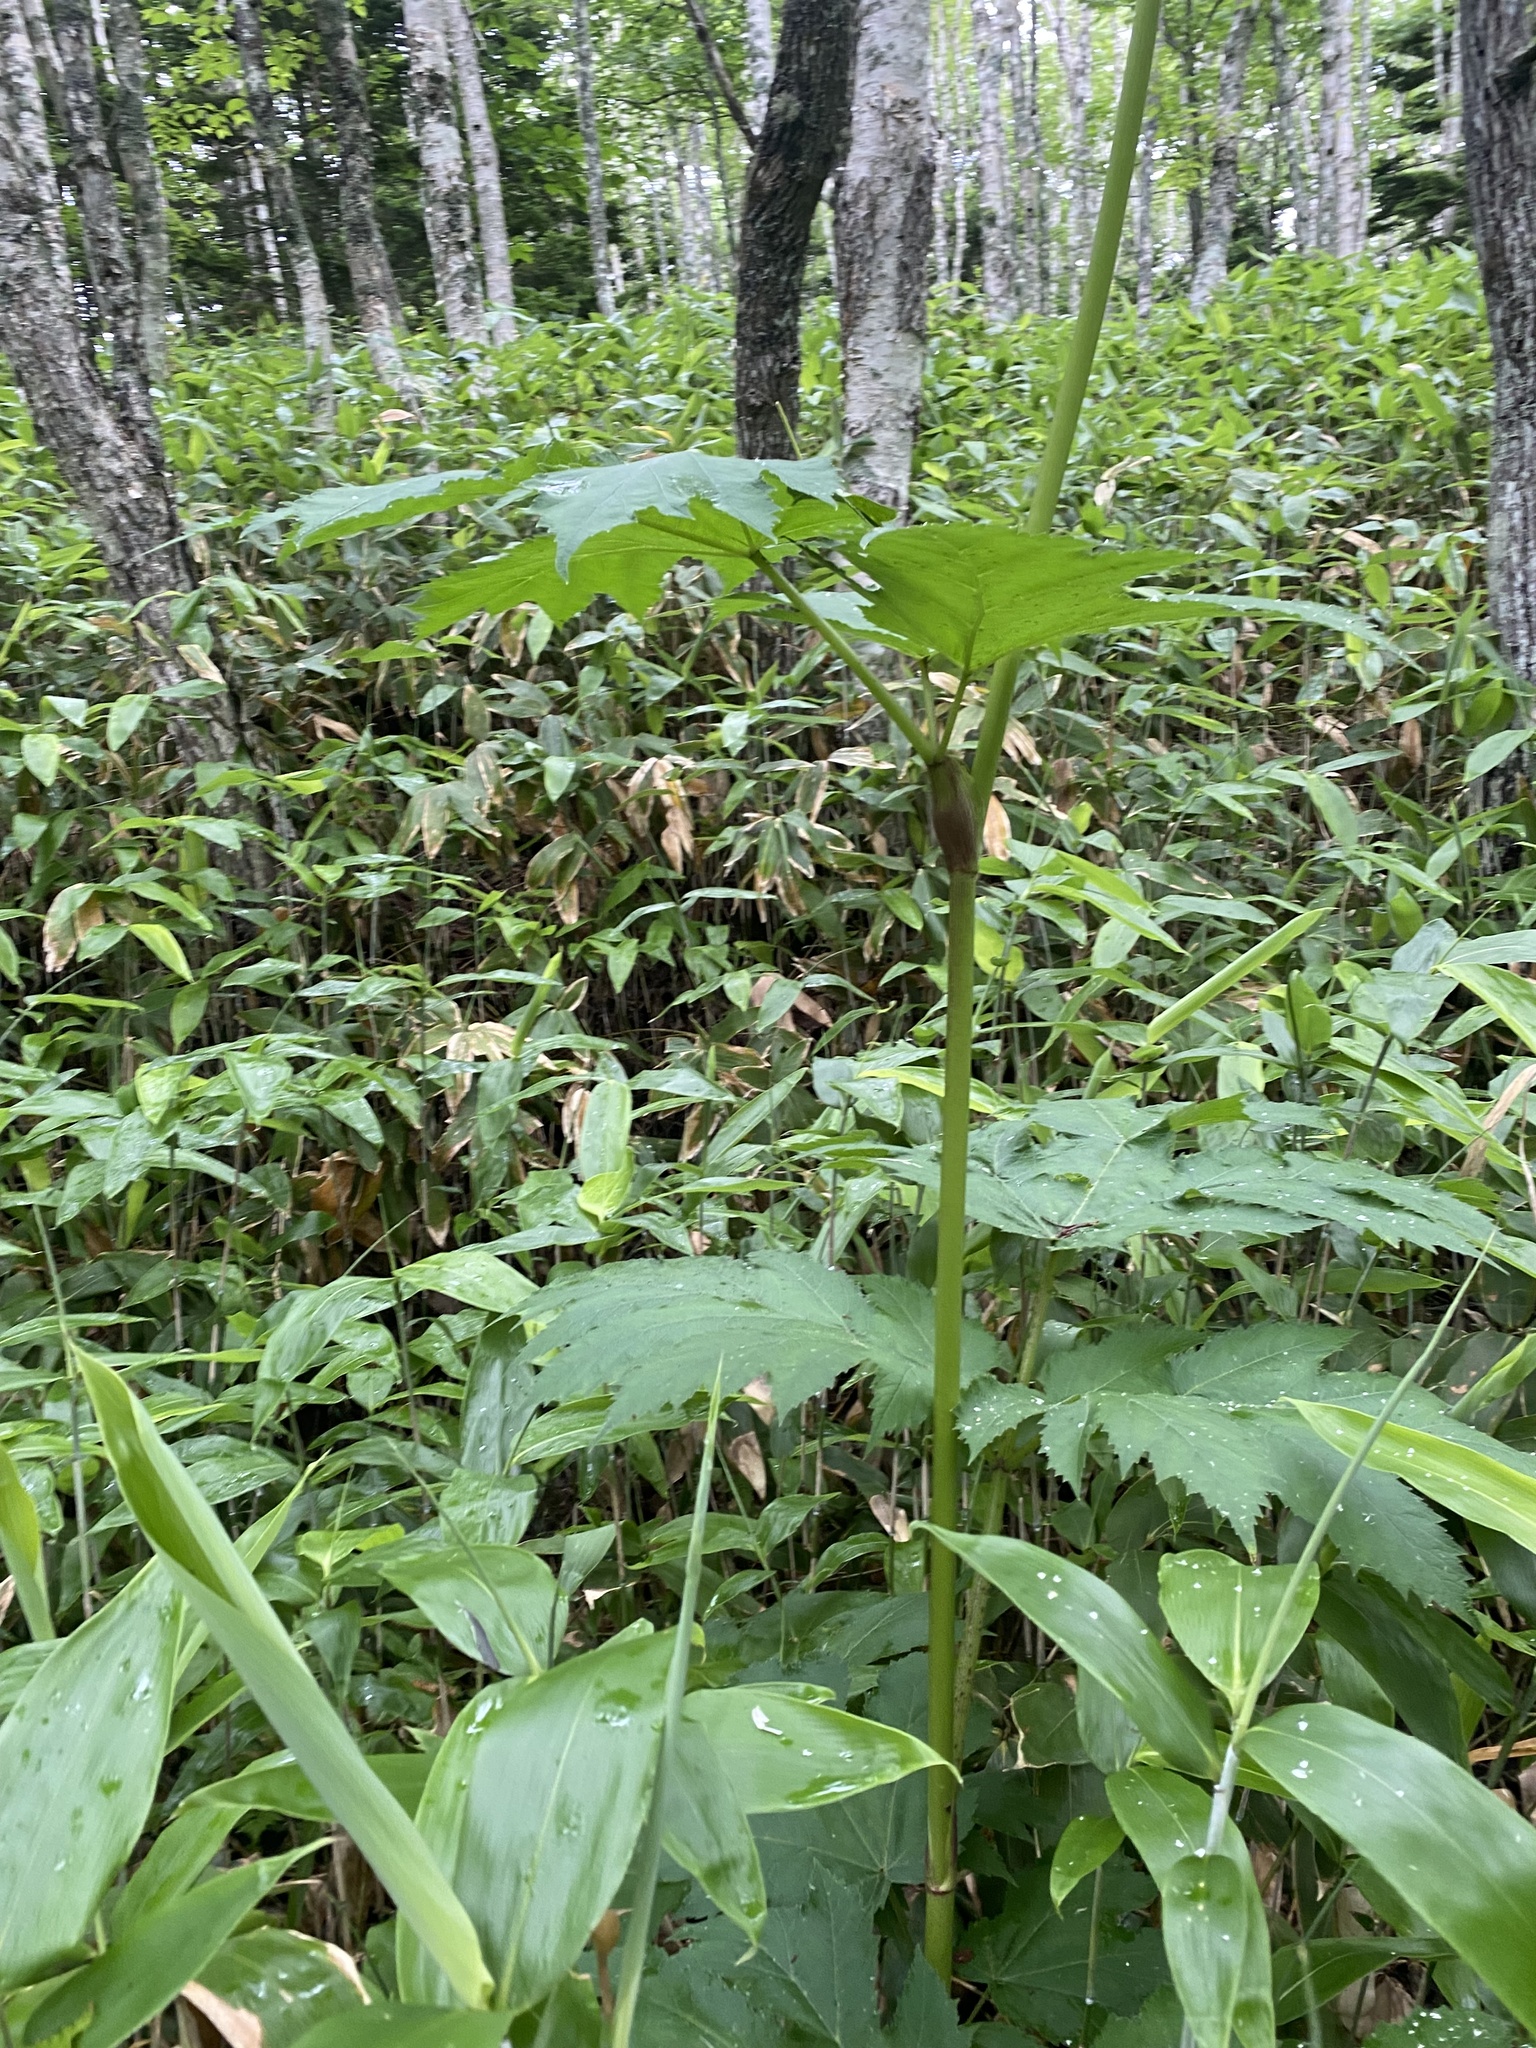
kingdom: Plantae
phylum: Tracheophyta
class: Magnoliopsida
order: Apiales
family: Apiaceae
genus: Heracleum
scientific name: Heracleum maximum
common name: American cow parsnip
